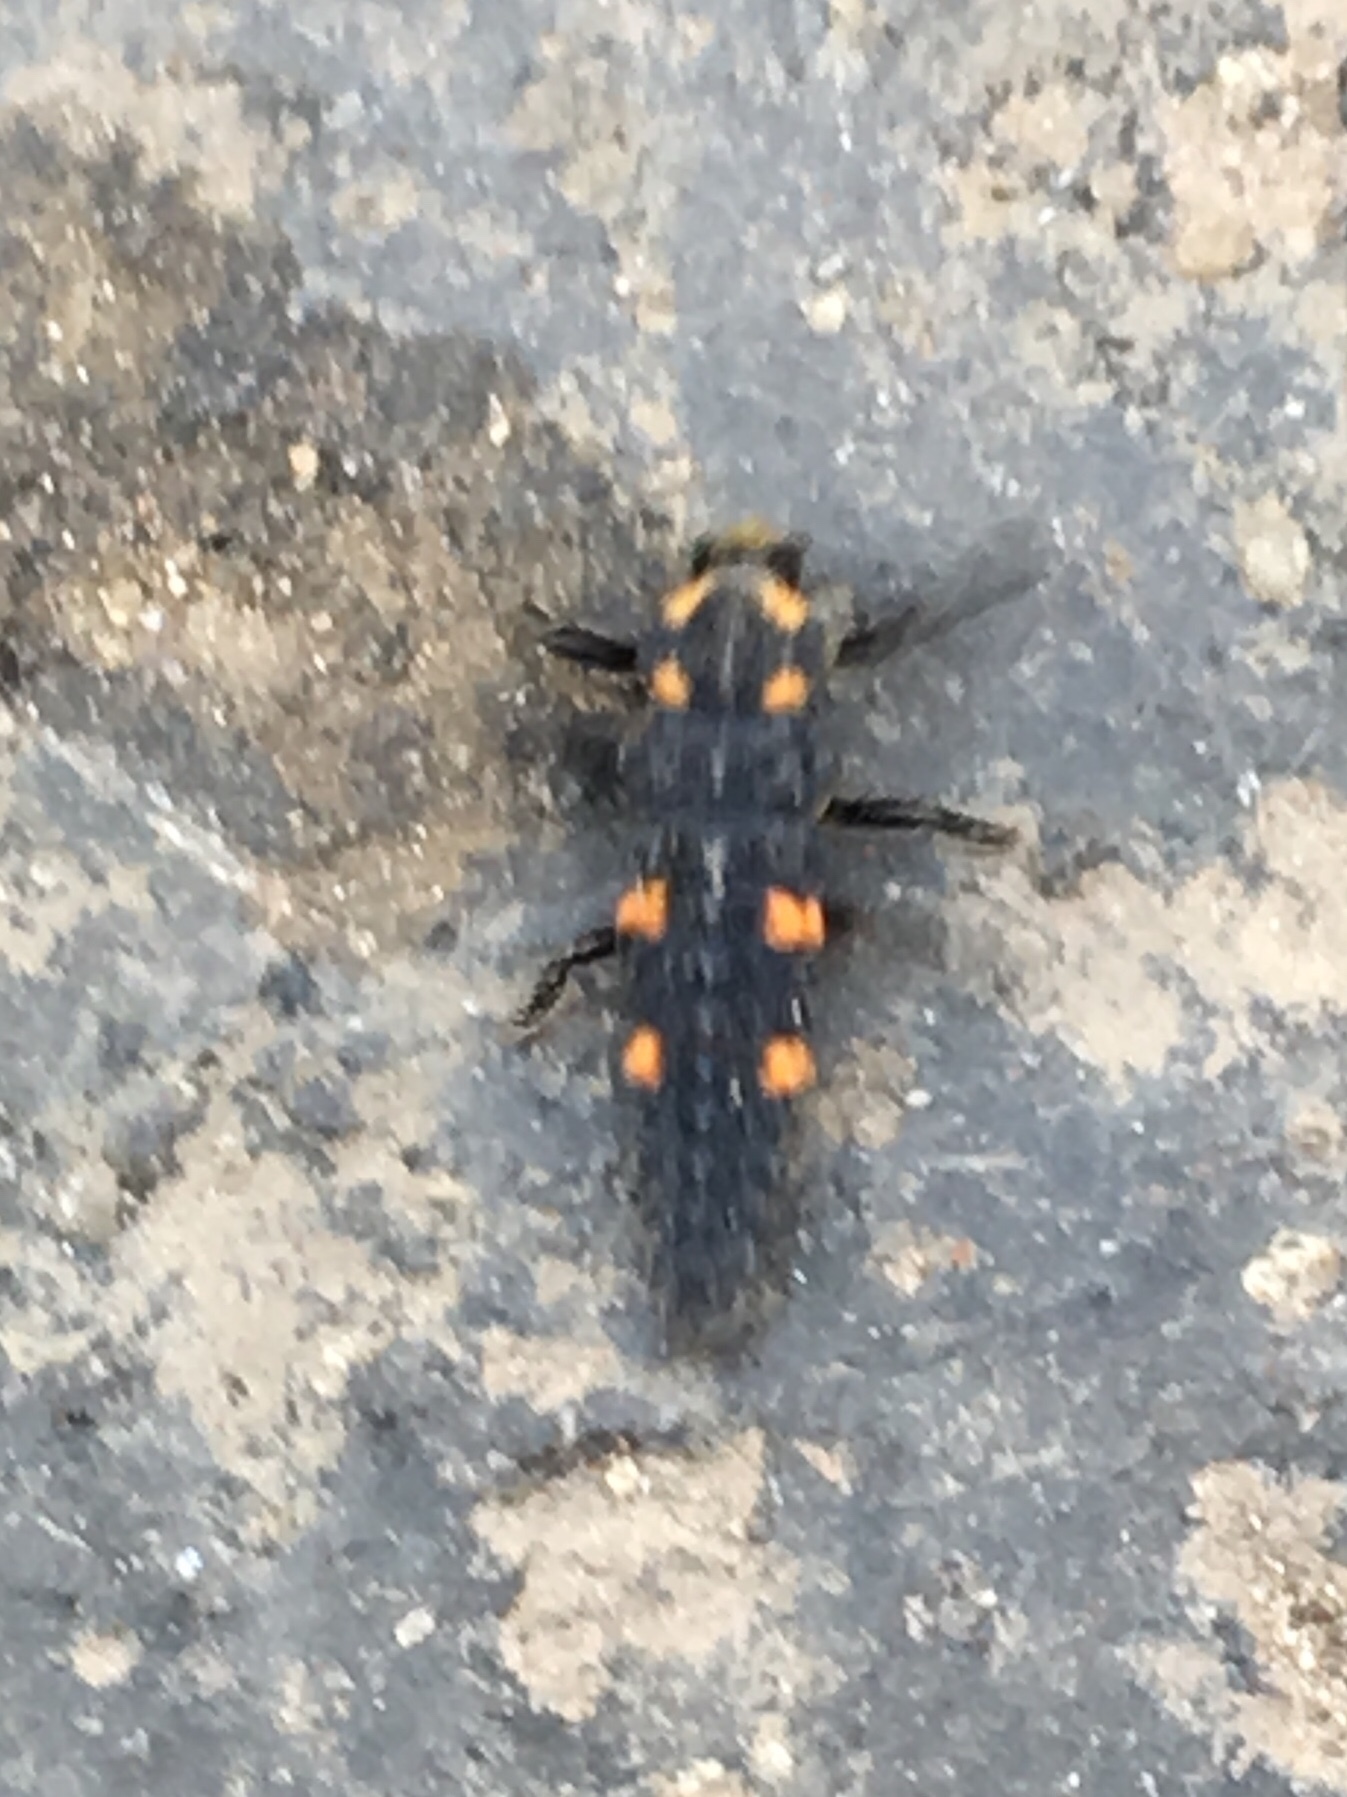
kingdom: Animalia
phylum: Arthropoda
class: Insecta
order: Coleoptera
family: Coccinellidae
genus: Coccinella
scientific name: Coccinella septempunctata
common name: Sevenspotted lady beetle
